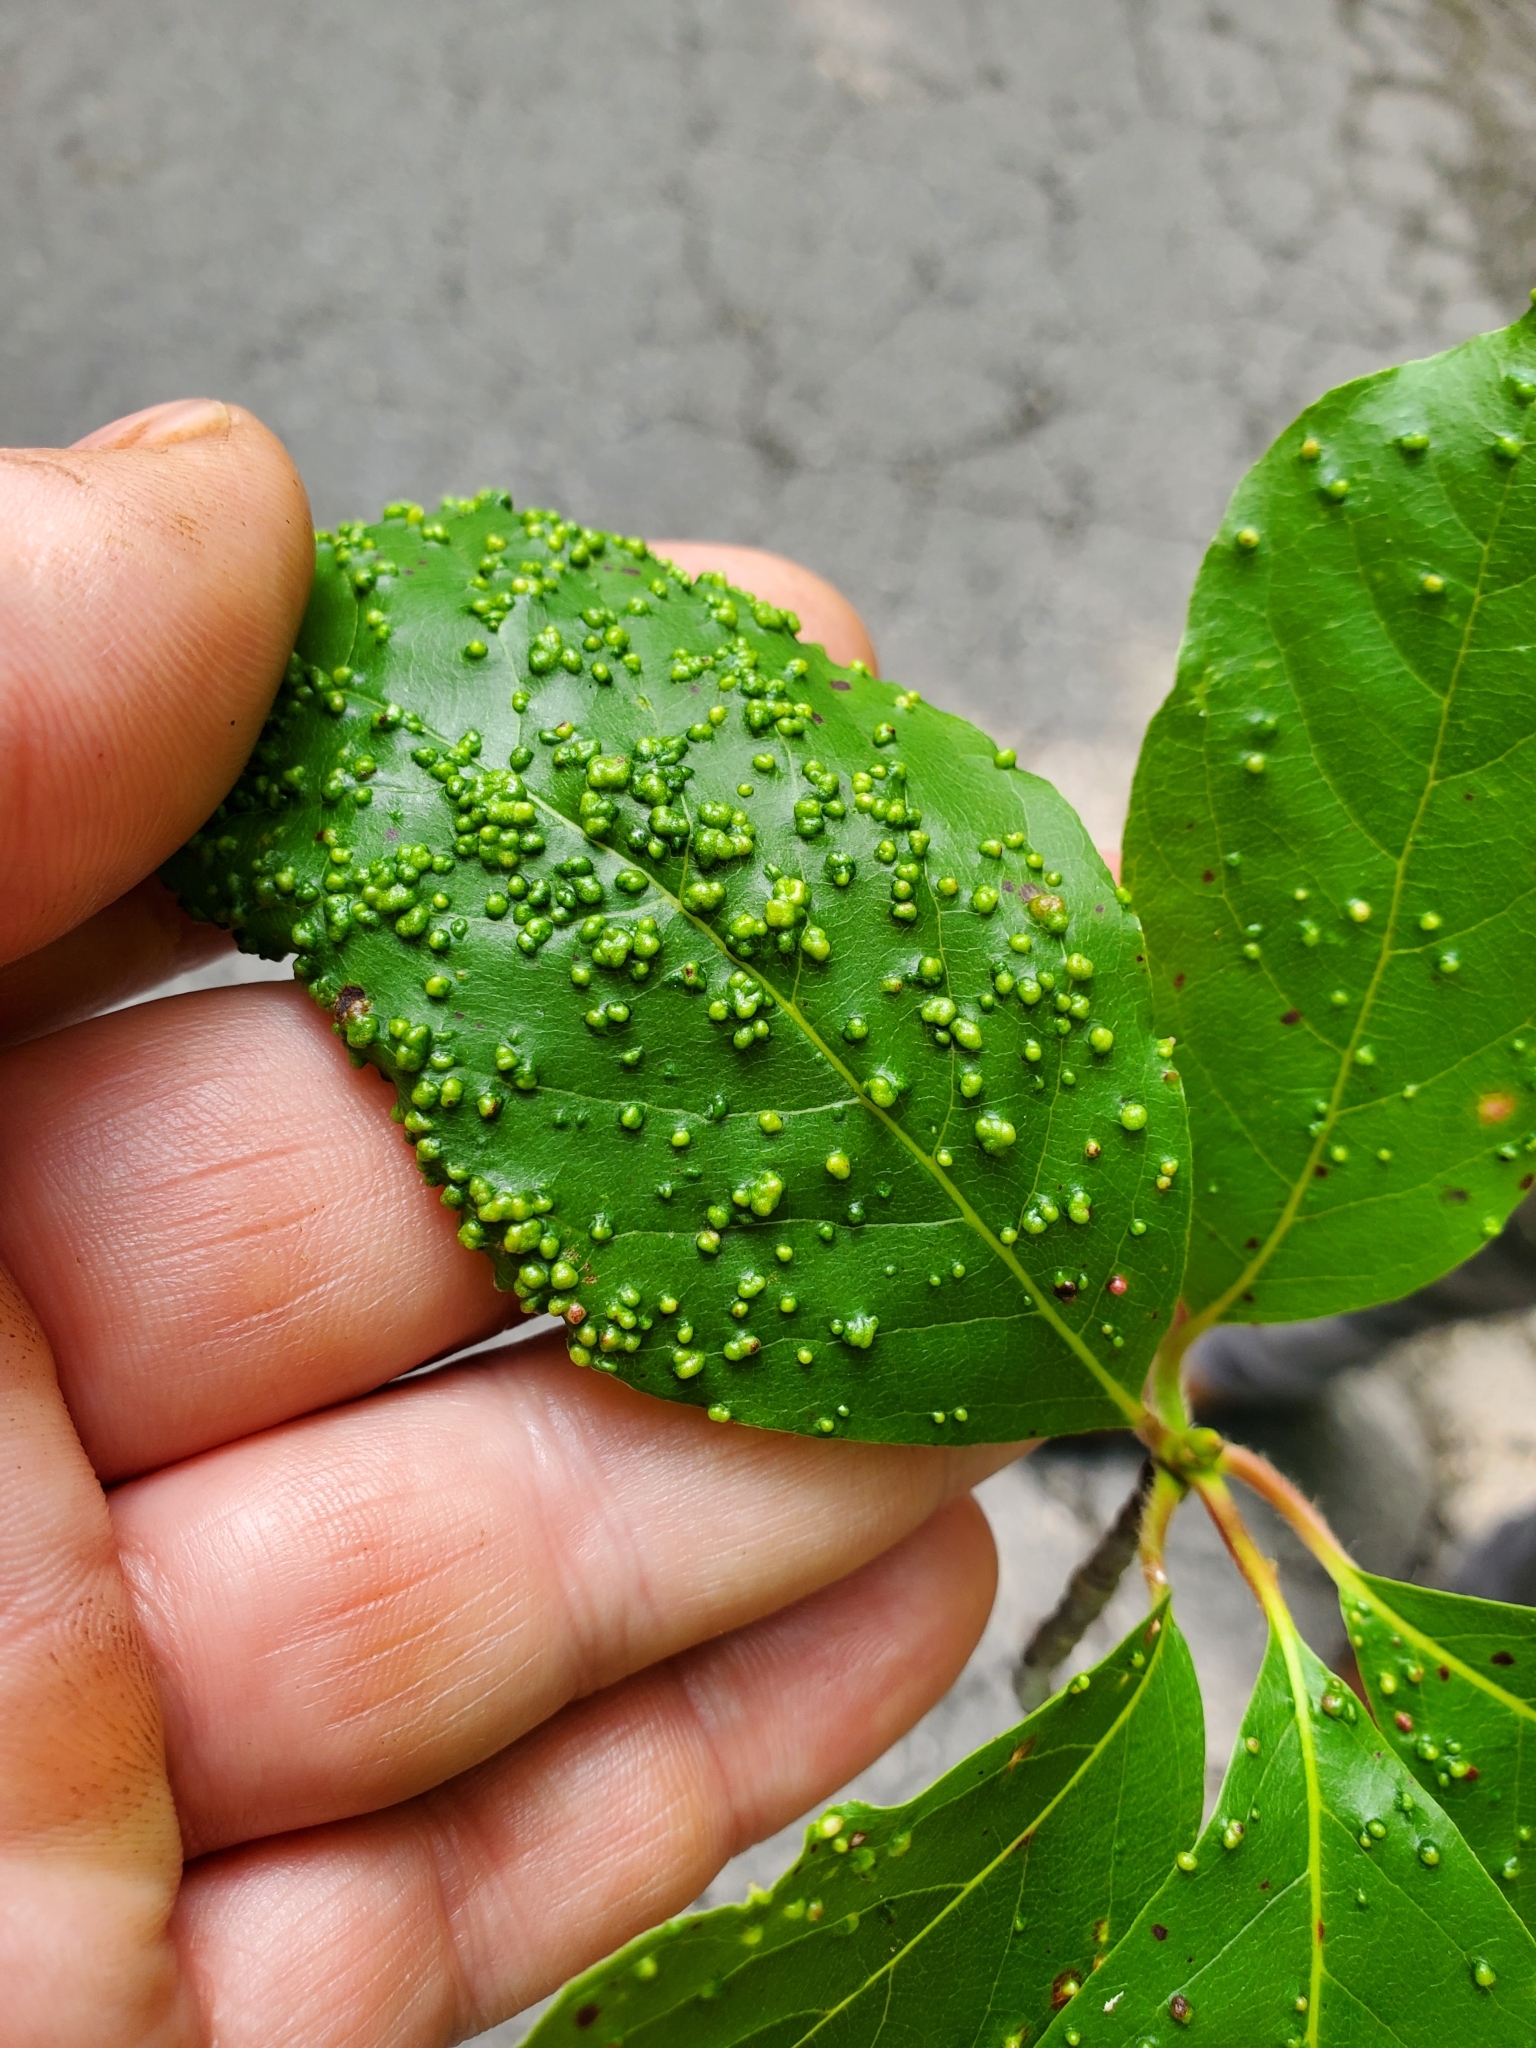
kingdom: Animalia
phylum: Arthropoda
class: Arachnida
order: Trombidiformes
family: Eriophyidae
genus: Aceria
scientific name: Aceria
